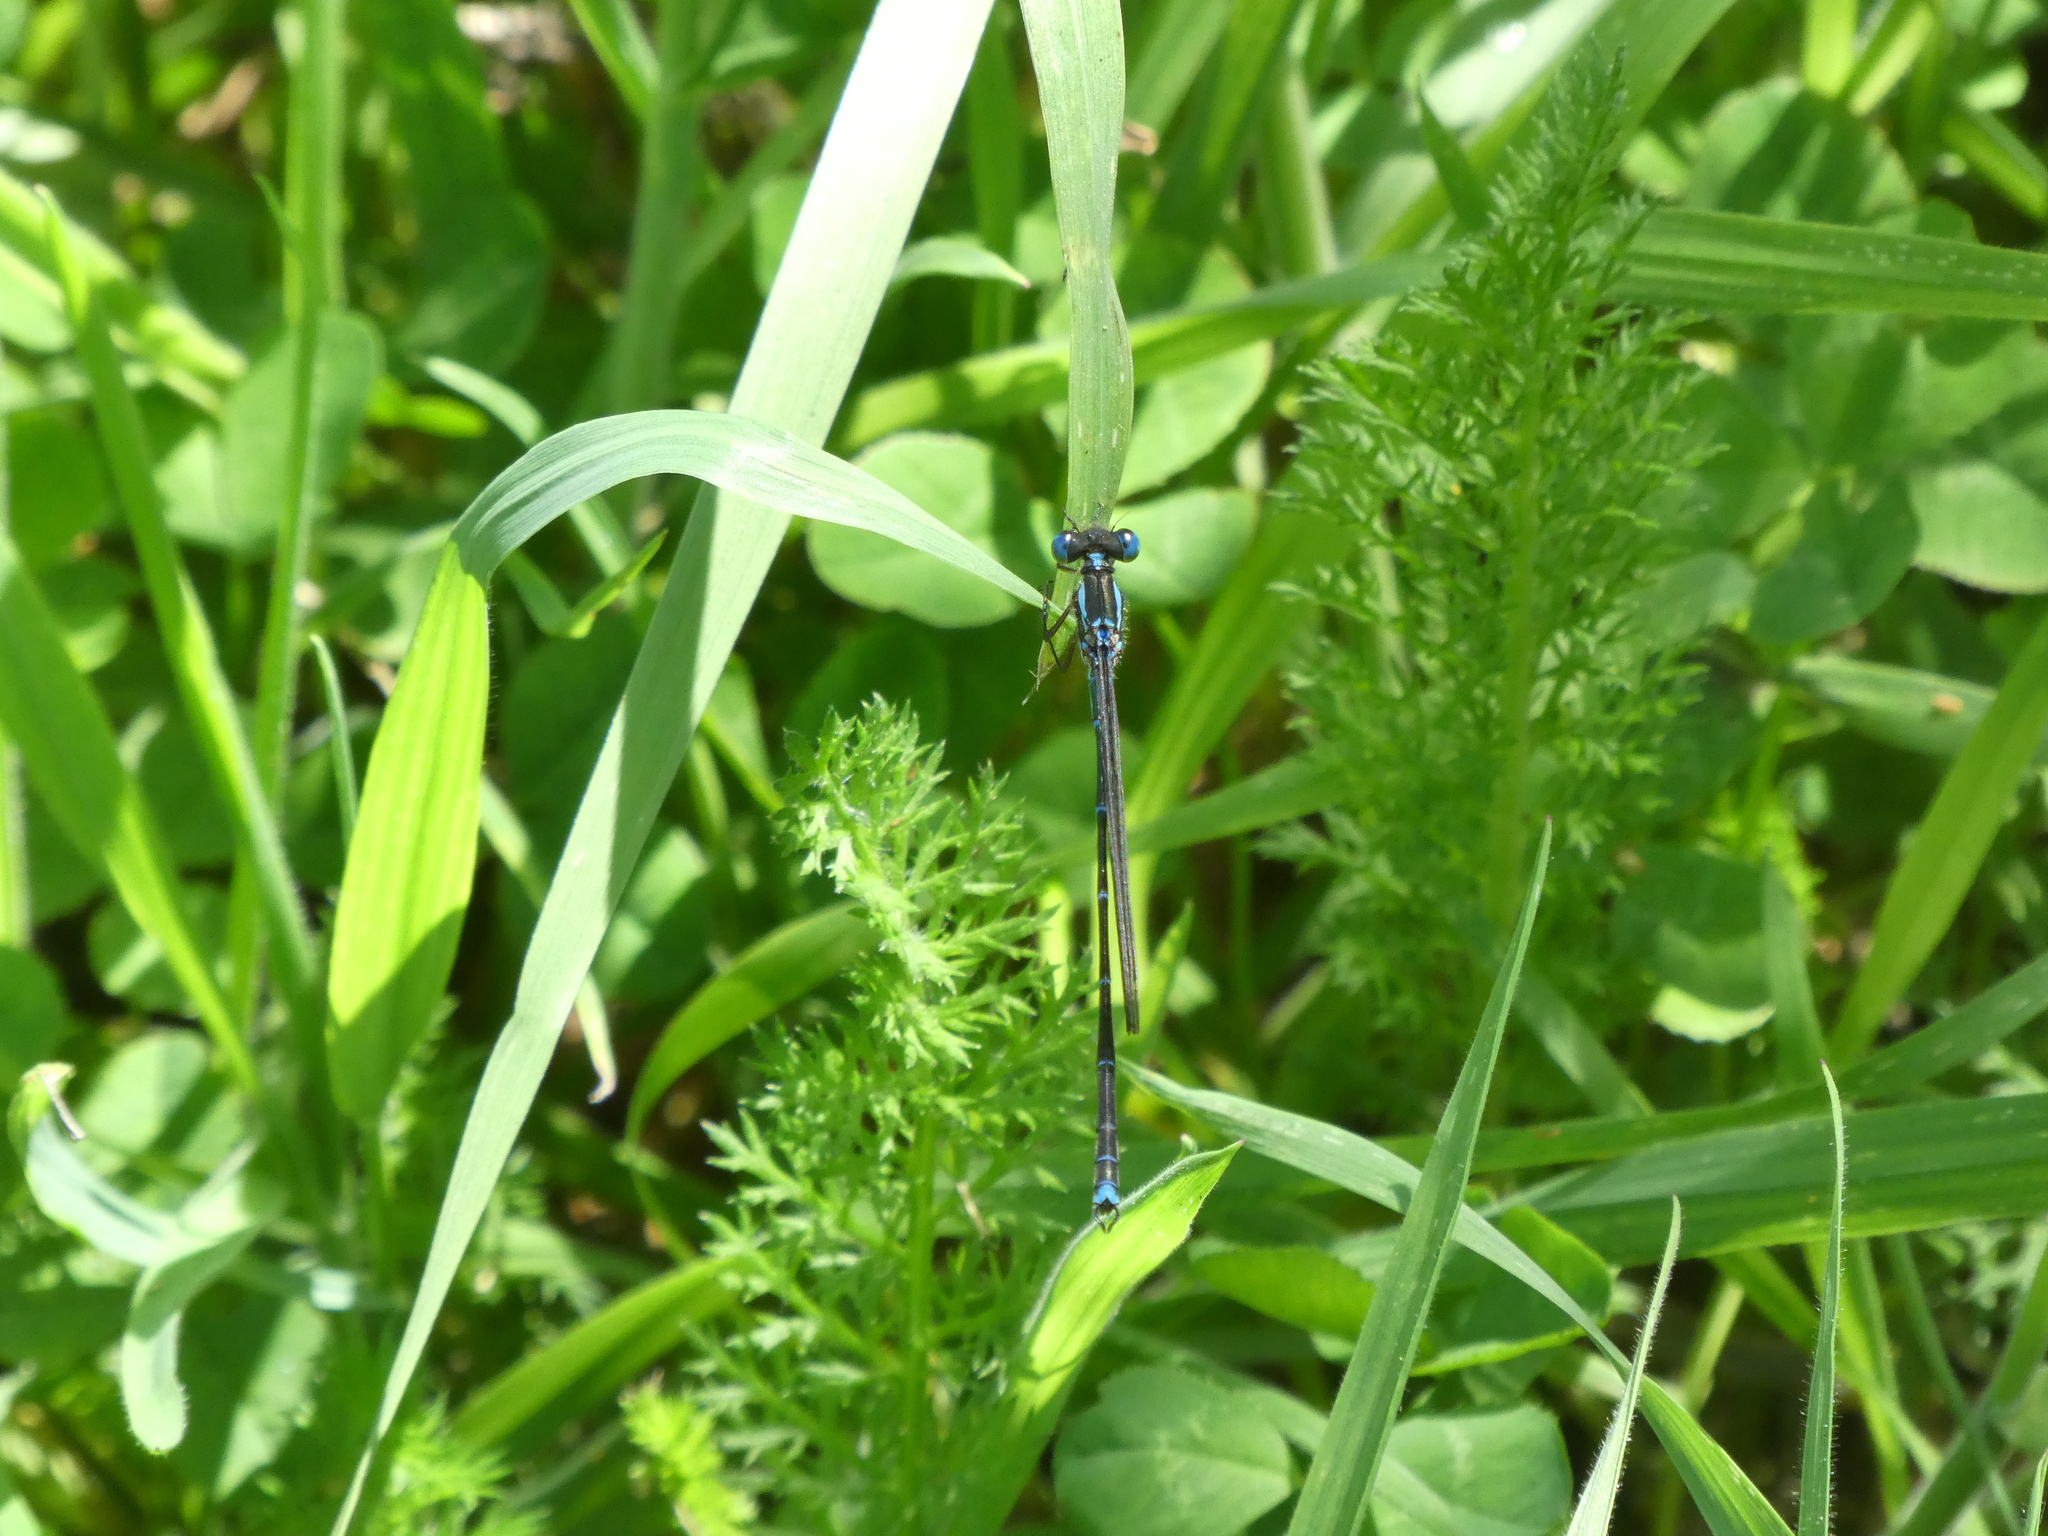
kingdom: Animalia
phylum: Arthropoda
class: Insecta
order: Odonata
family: Lestidae
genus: Austrolestes
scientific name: Austrolestes colensonis
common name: Blue damselfly
